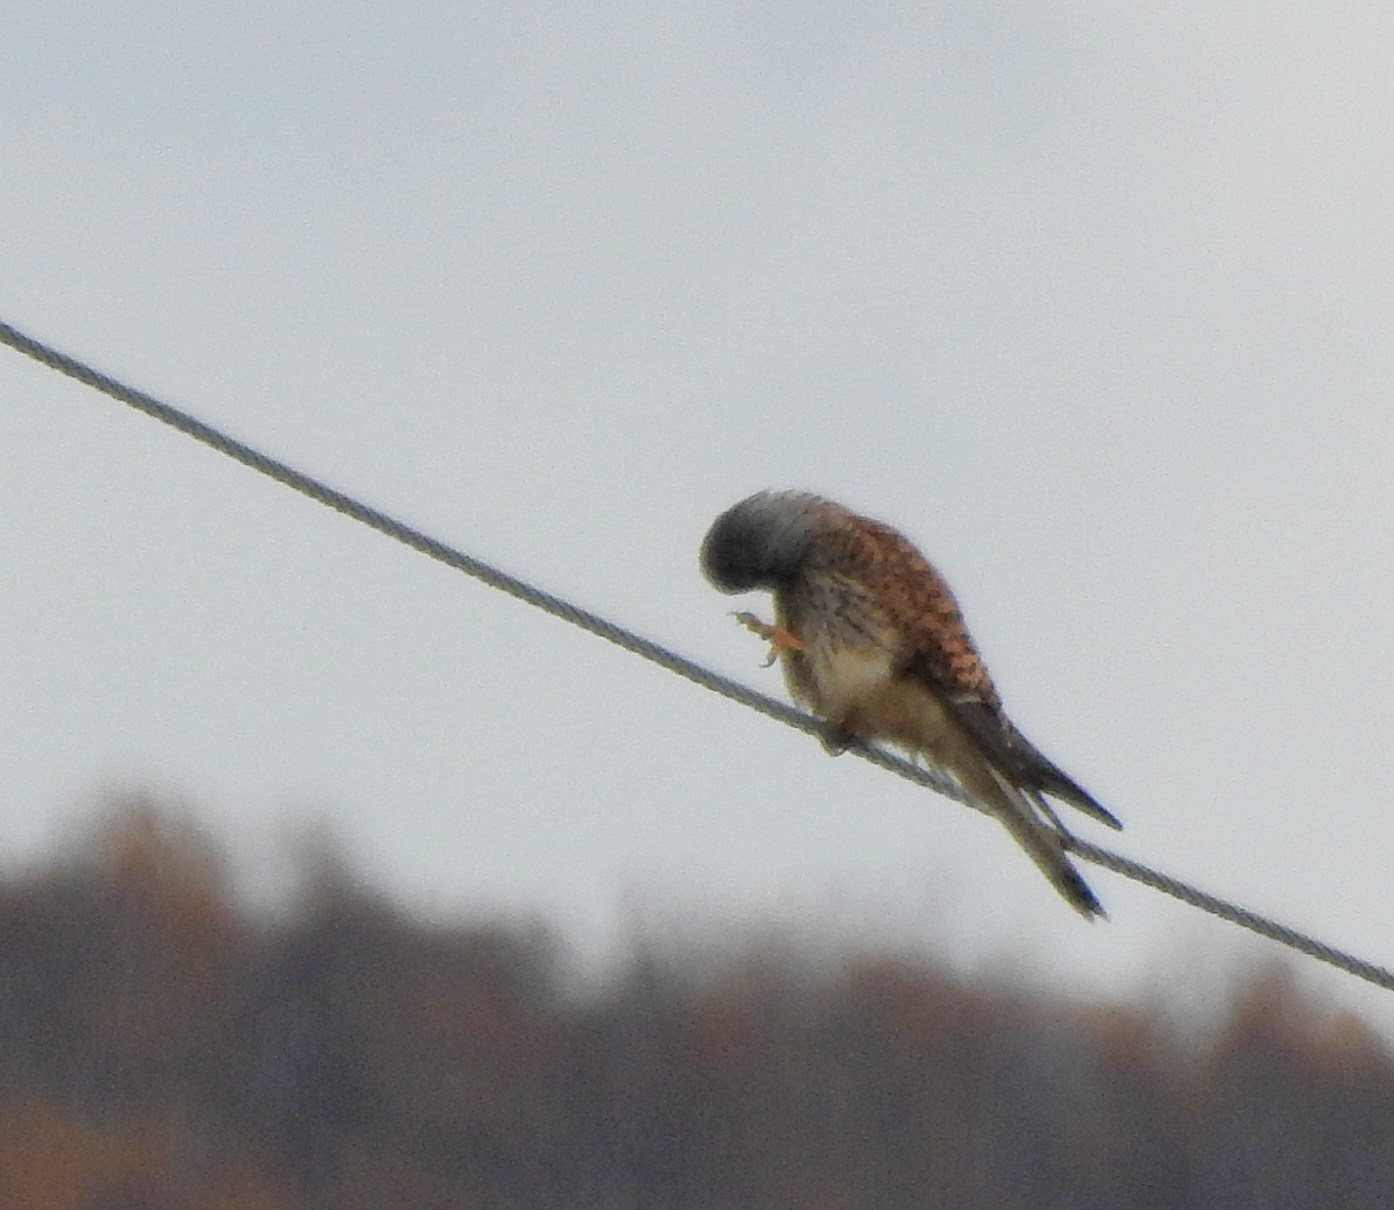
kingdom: Animalia
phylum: Chordata
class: Aves
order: Falconiformes
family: Falconidae
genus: Falco
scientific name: Falco tinnunculus
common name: Common kestrel
